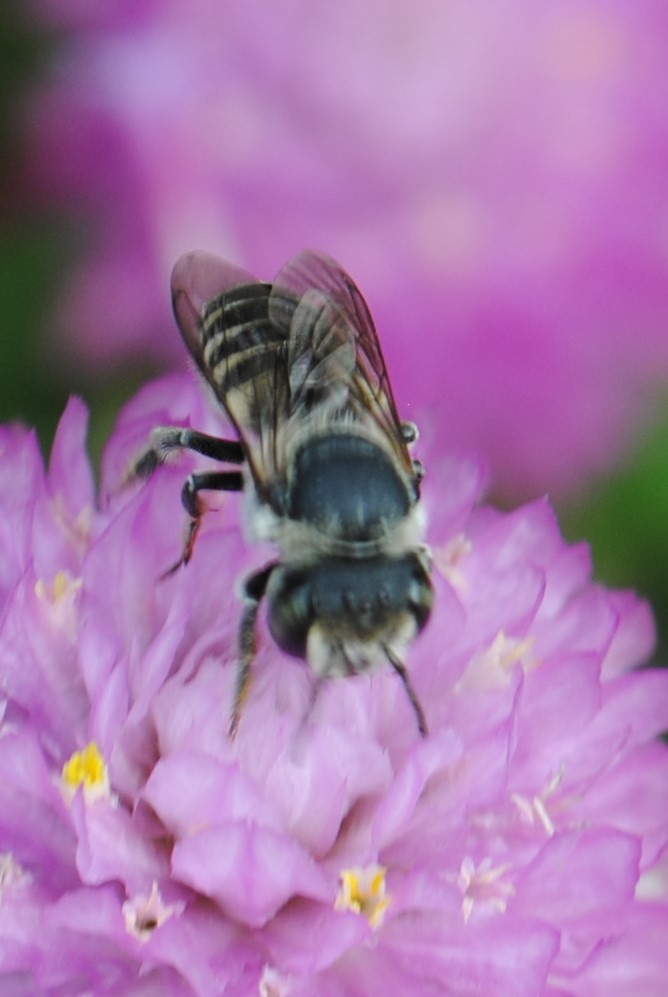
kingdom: Animalia
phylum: Arthropoda
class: Insecta
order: Hymenoptera
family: Megachilidae
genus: Megachile
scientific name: Megachile
